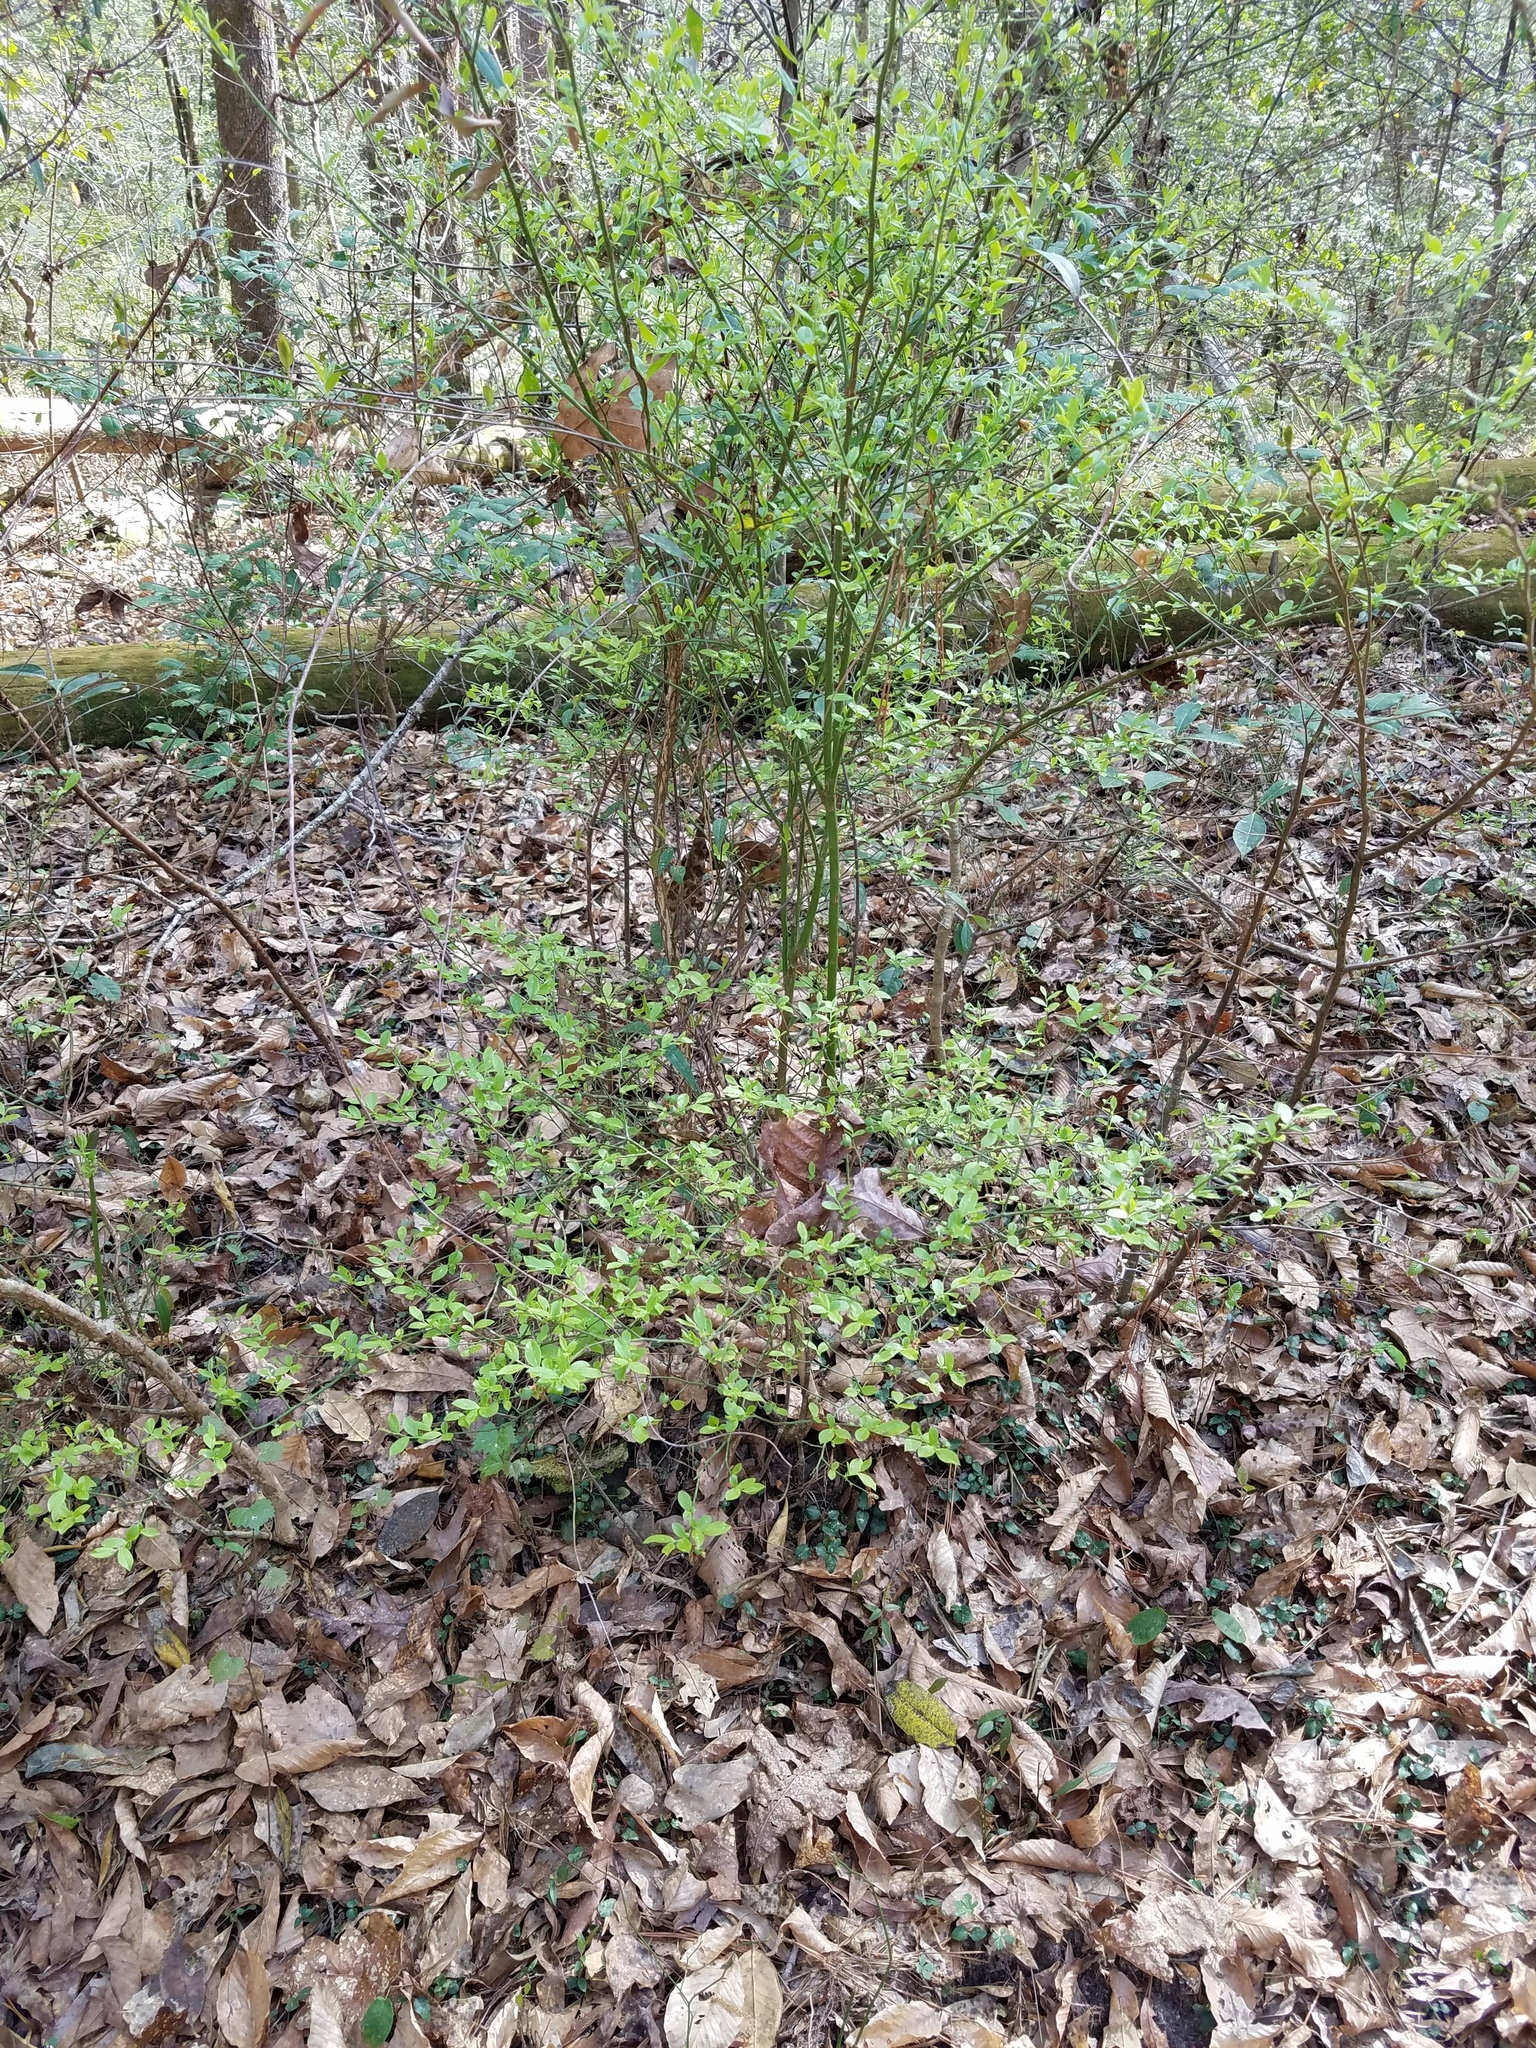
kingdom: Plantae
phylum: Tracheophyta
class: Magnoliopsida
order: Ericales
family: Ericaceae
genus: Vaccinium
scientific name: Vaccinium corymbosum
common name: Blueberry
